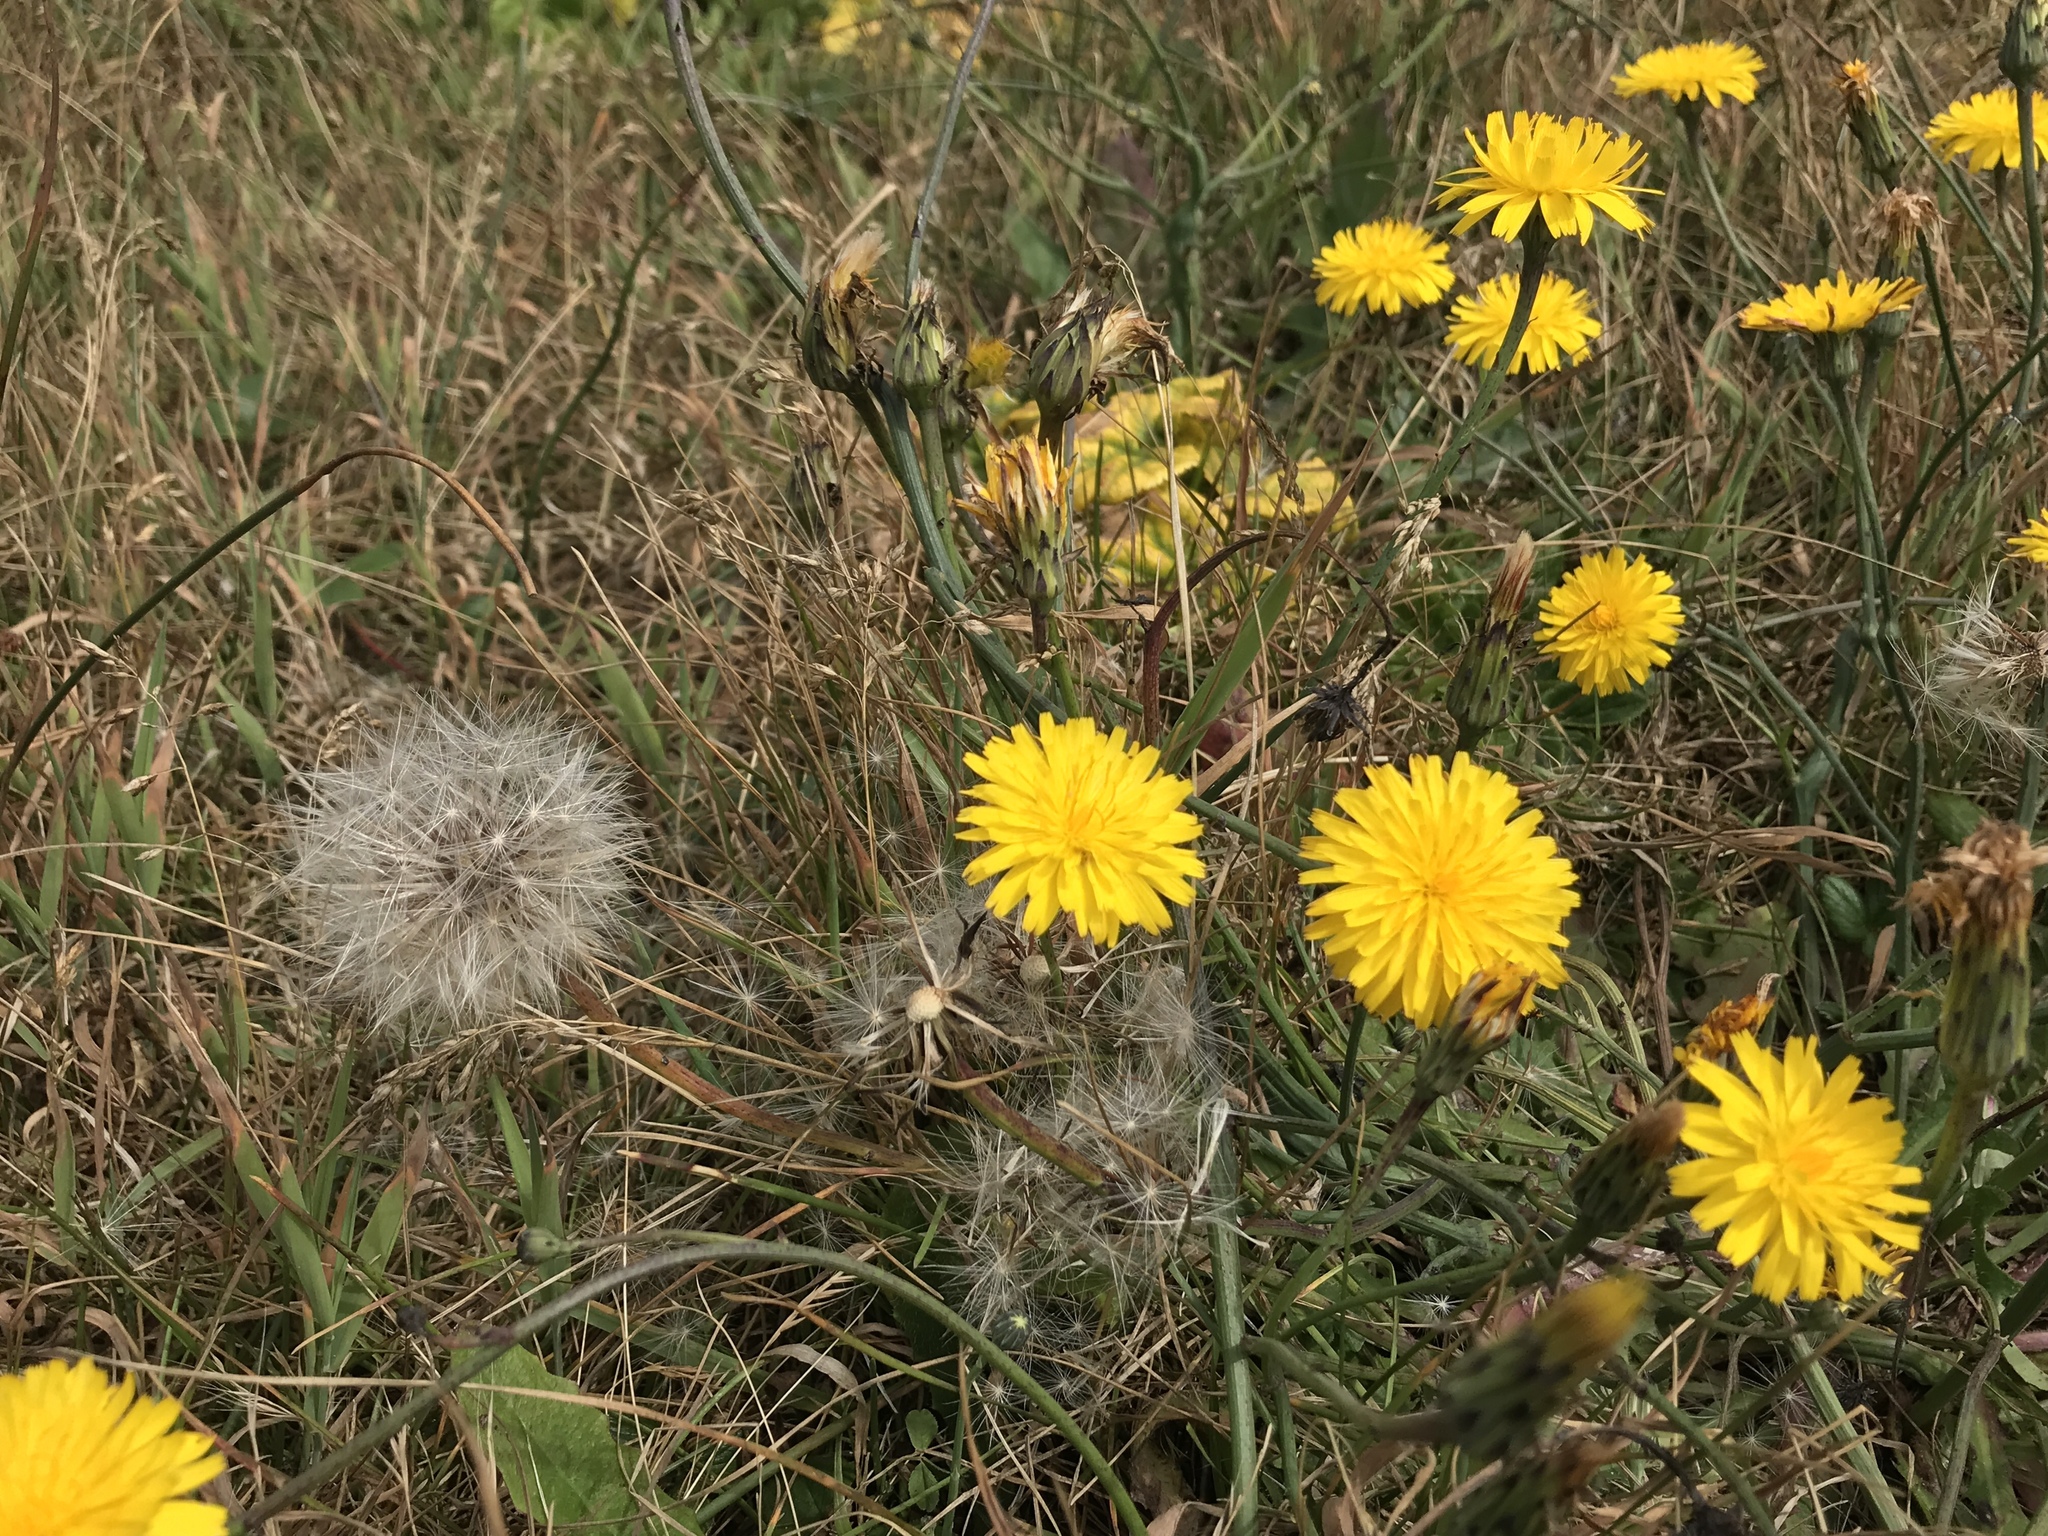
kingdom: Plantae
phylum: Tracheophyta
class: Magnoliopsida
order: Asterales
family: Asteraceae
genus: Hypochaeris
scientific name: Hypochaeris radicata
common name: Flatweed
